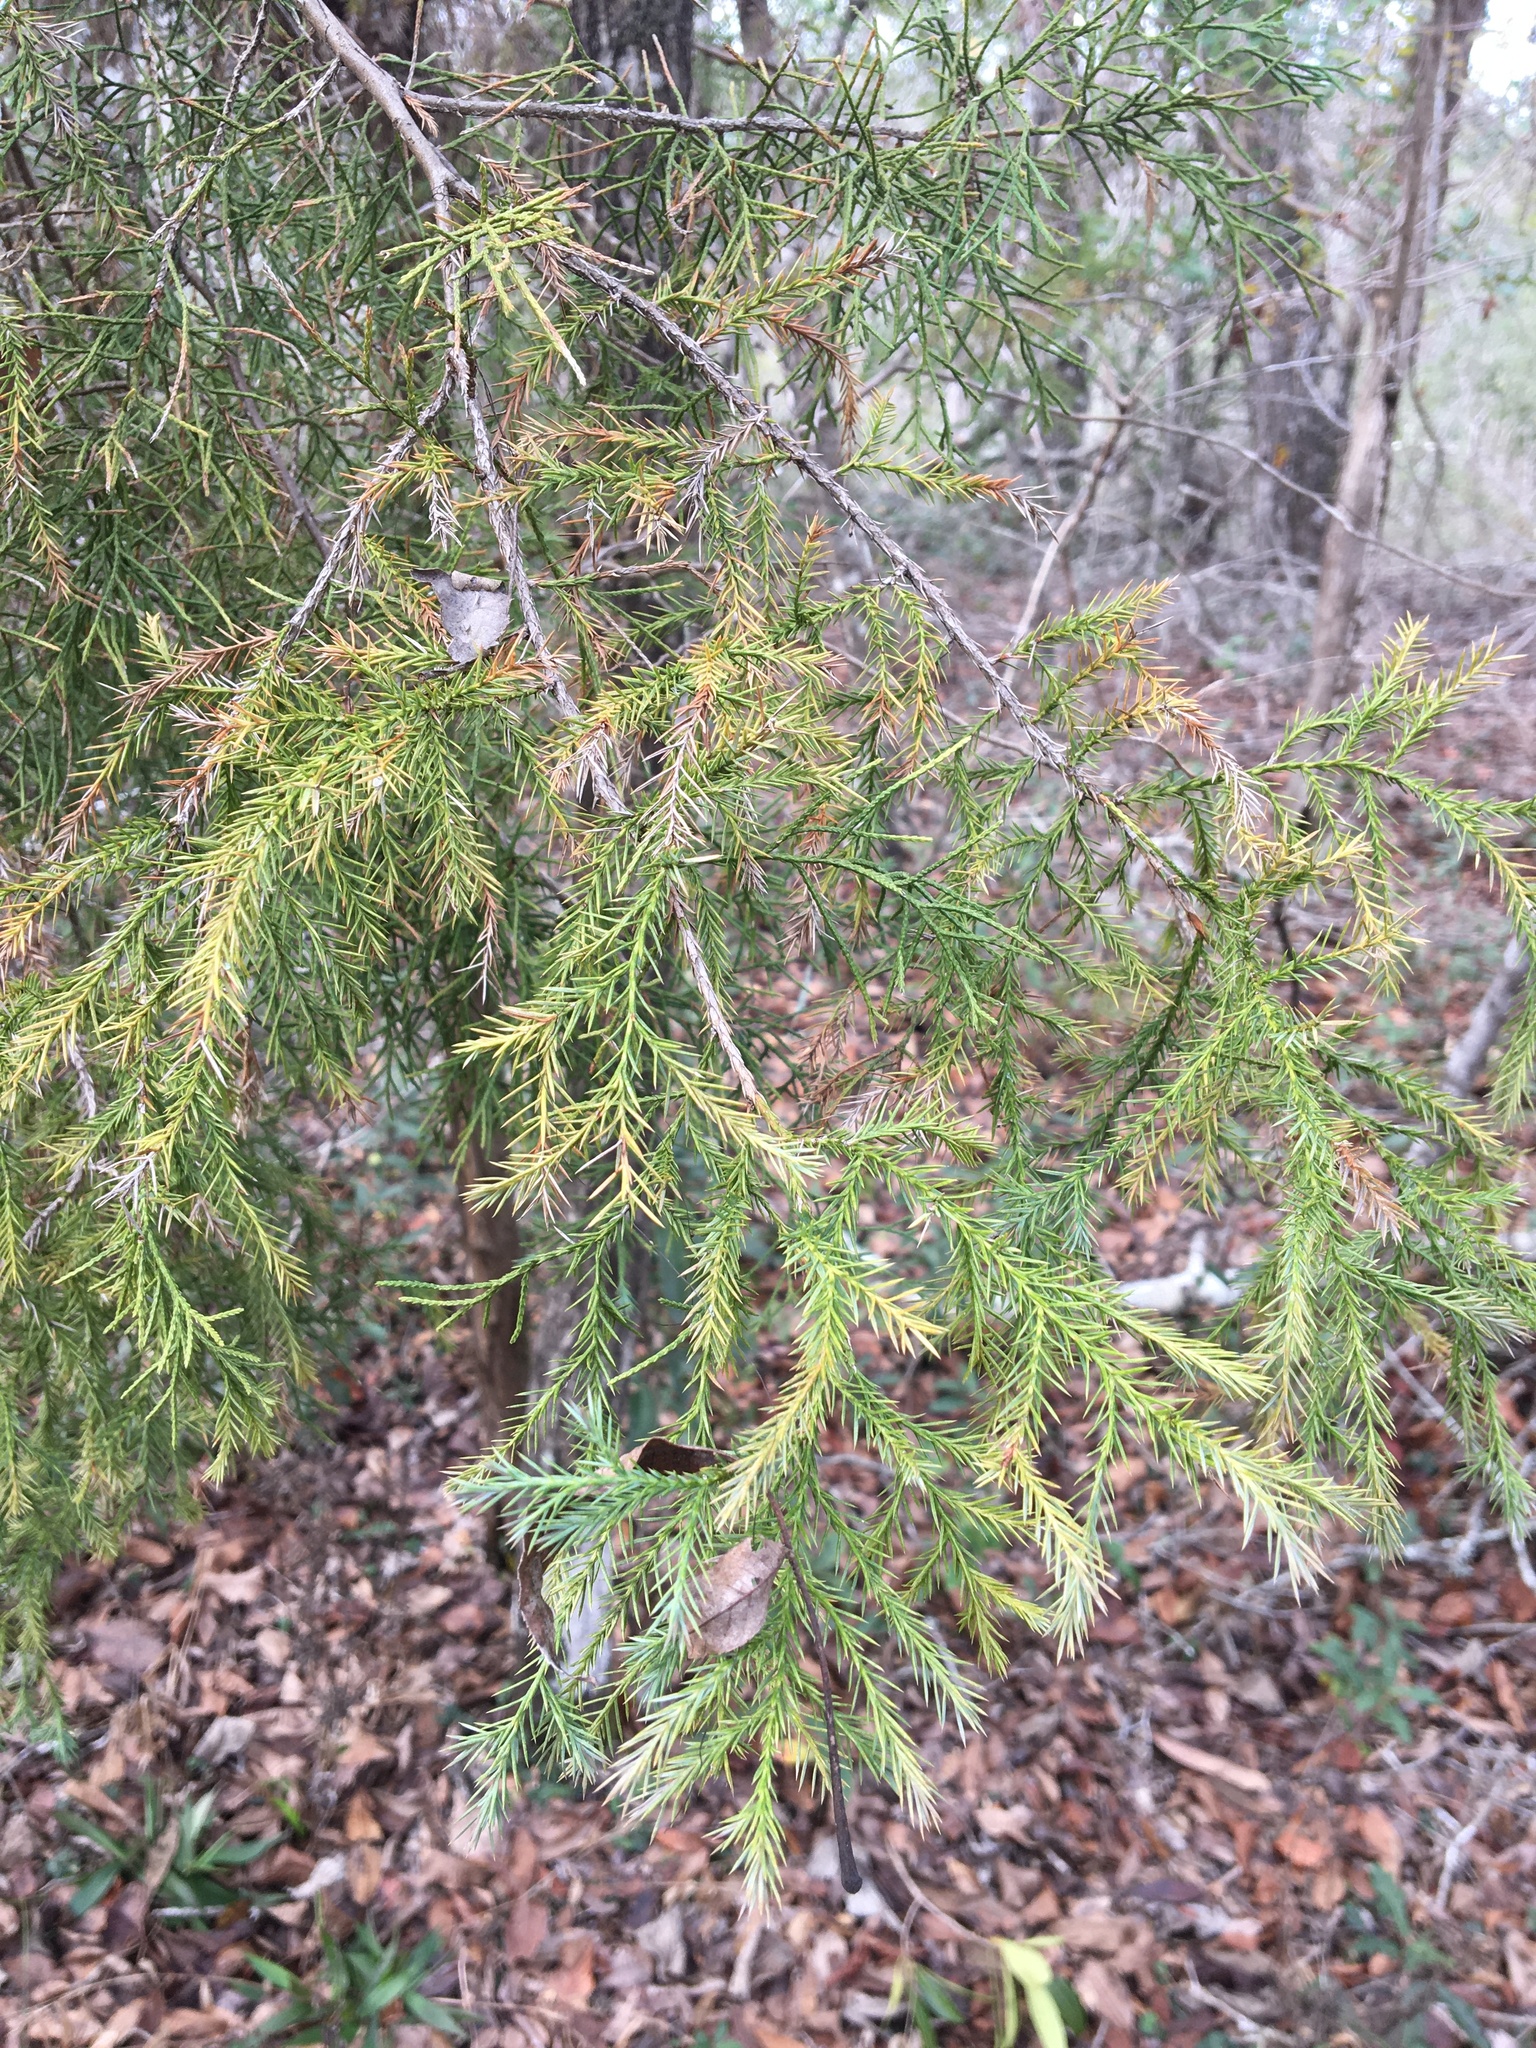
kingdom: Plantae
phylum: Tracheophyta
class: Pinopsida
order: Pinales
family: Cupressaceae
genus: Juniperus
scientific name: Juniperus virginiana
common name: Red juniper
